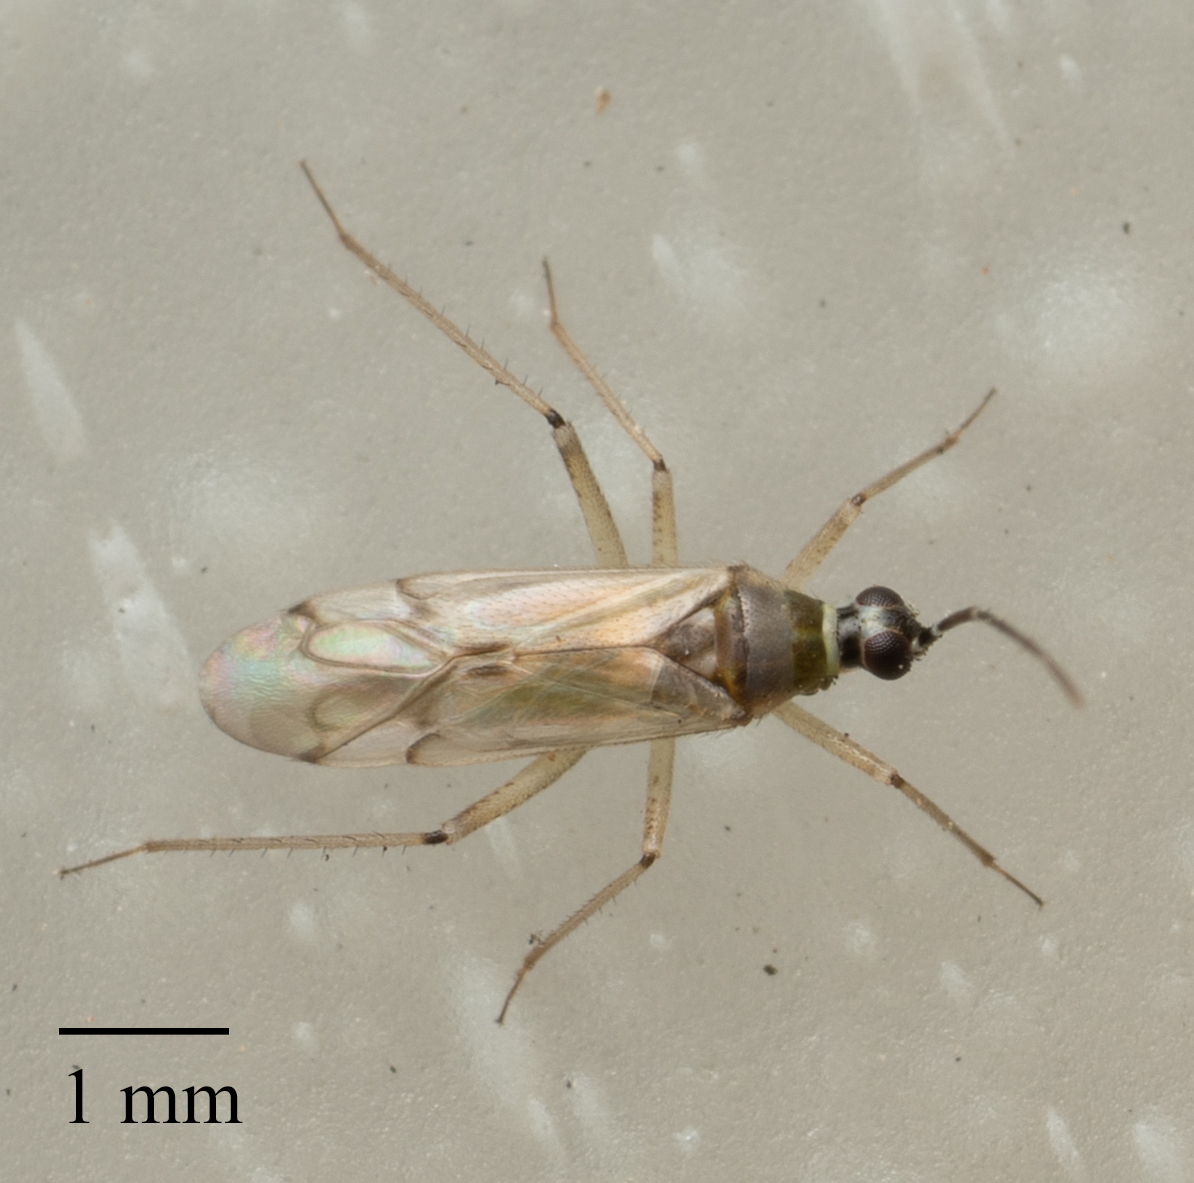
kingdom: Animalia
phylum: Arthropoda
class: Insecta
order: Hemiptera
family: Miridae
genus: Engytatus
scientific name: Engytatus modestus
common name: Tomato bug
